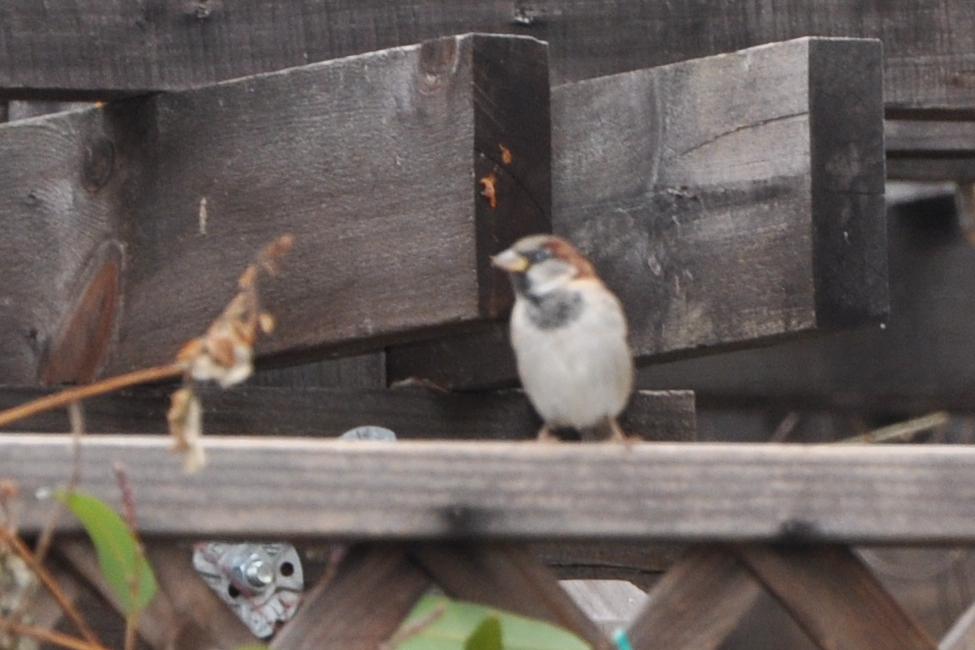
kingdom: Animalia
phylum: Chordata
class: Aves
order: Passeriformes
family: Passeridae
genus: Passer
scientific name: Passer domesticus
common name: House sparrow
